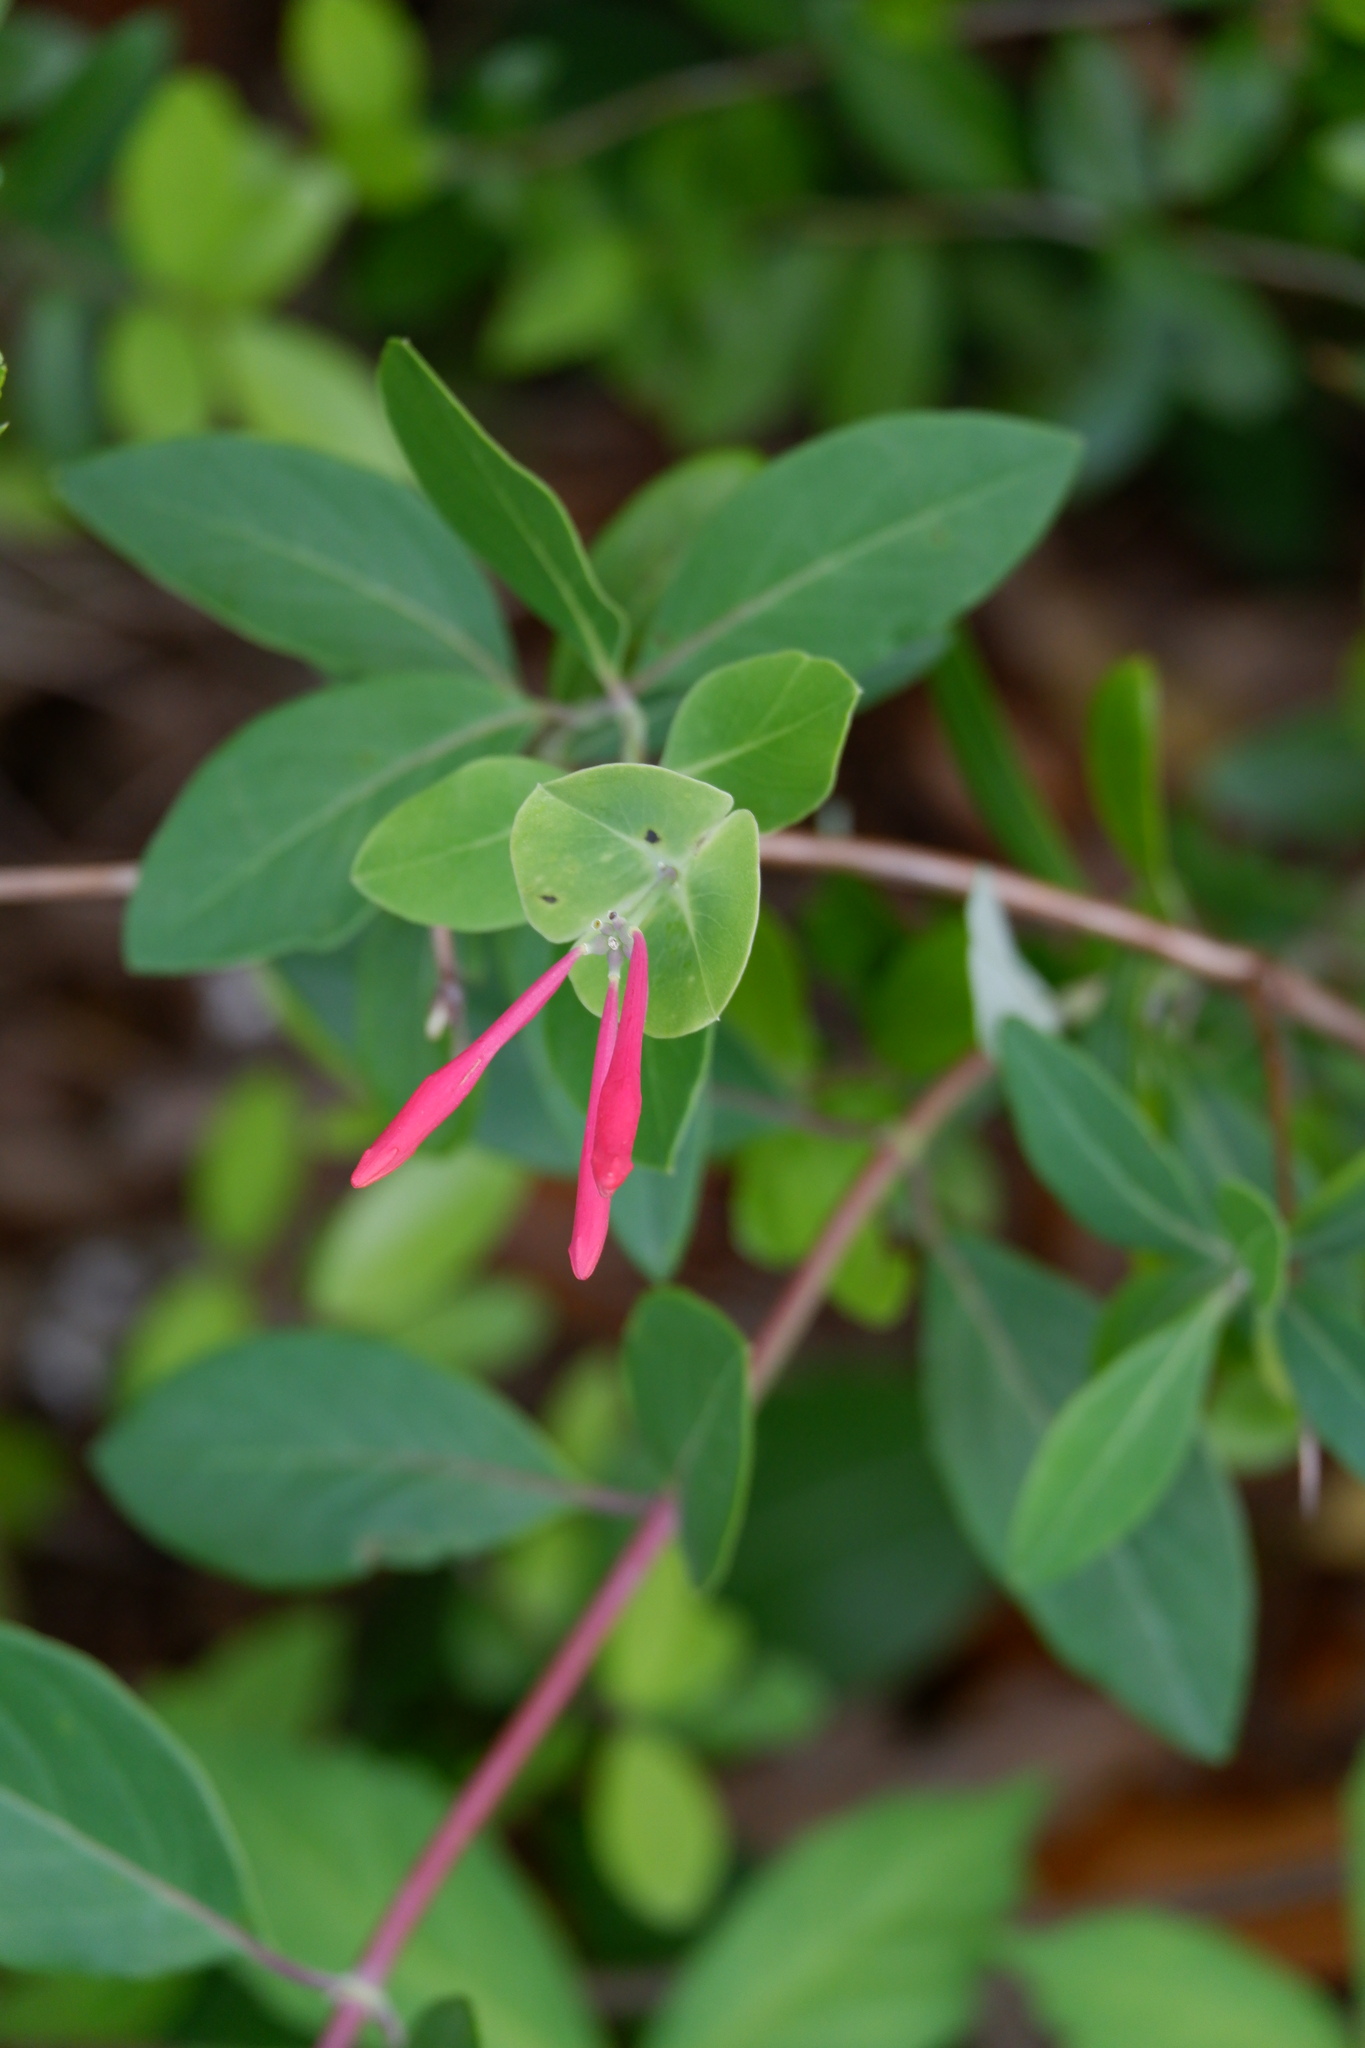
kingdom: Plantae
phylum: Tracheophyta
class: Magnoliopsida
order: Dipsacales
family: Caprifoliaceae
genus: Lonicera
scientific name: Lonicera sempervirens
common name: Coral honeysuckle
